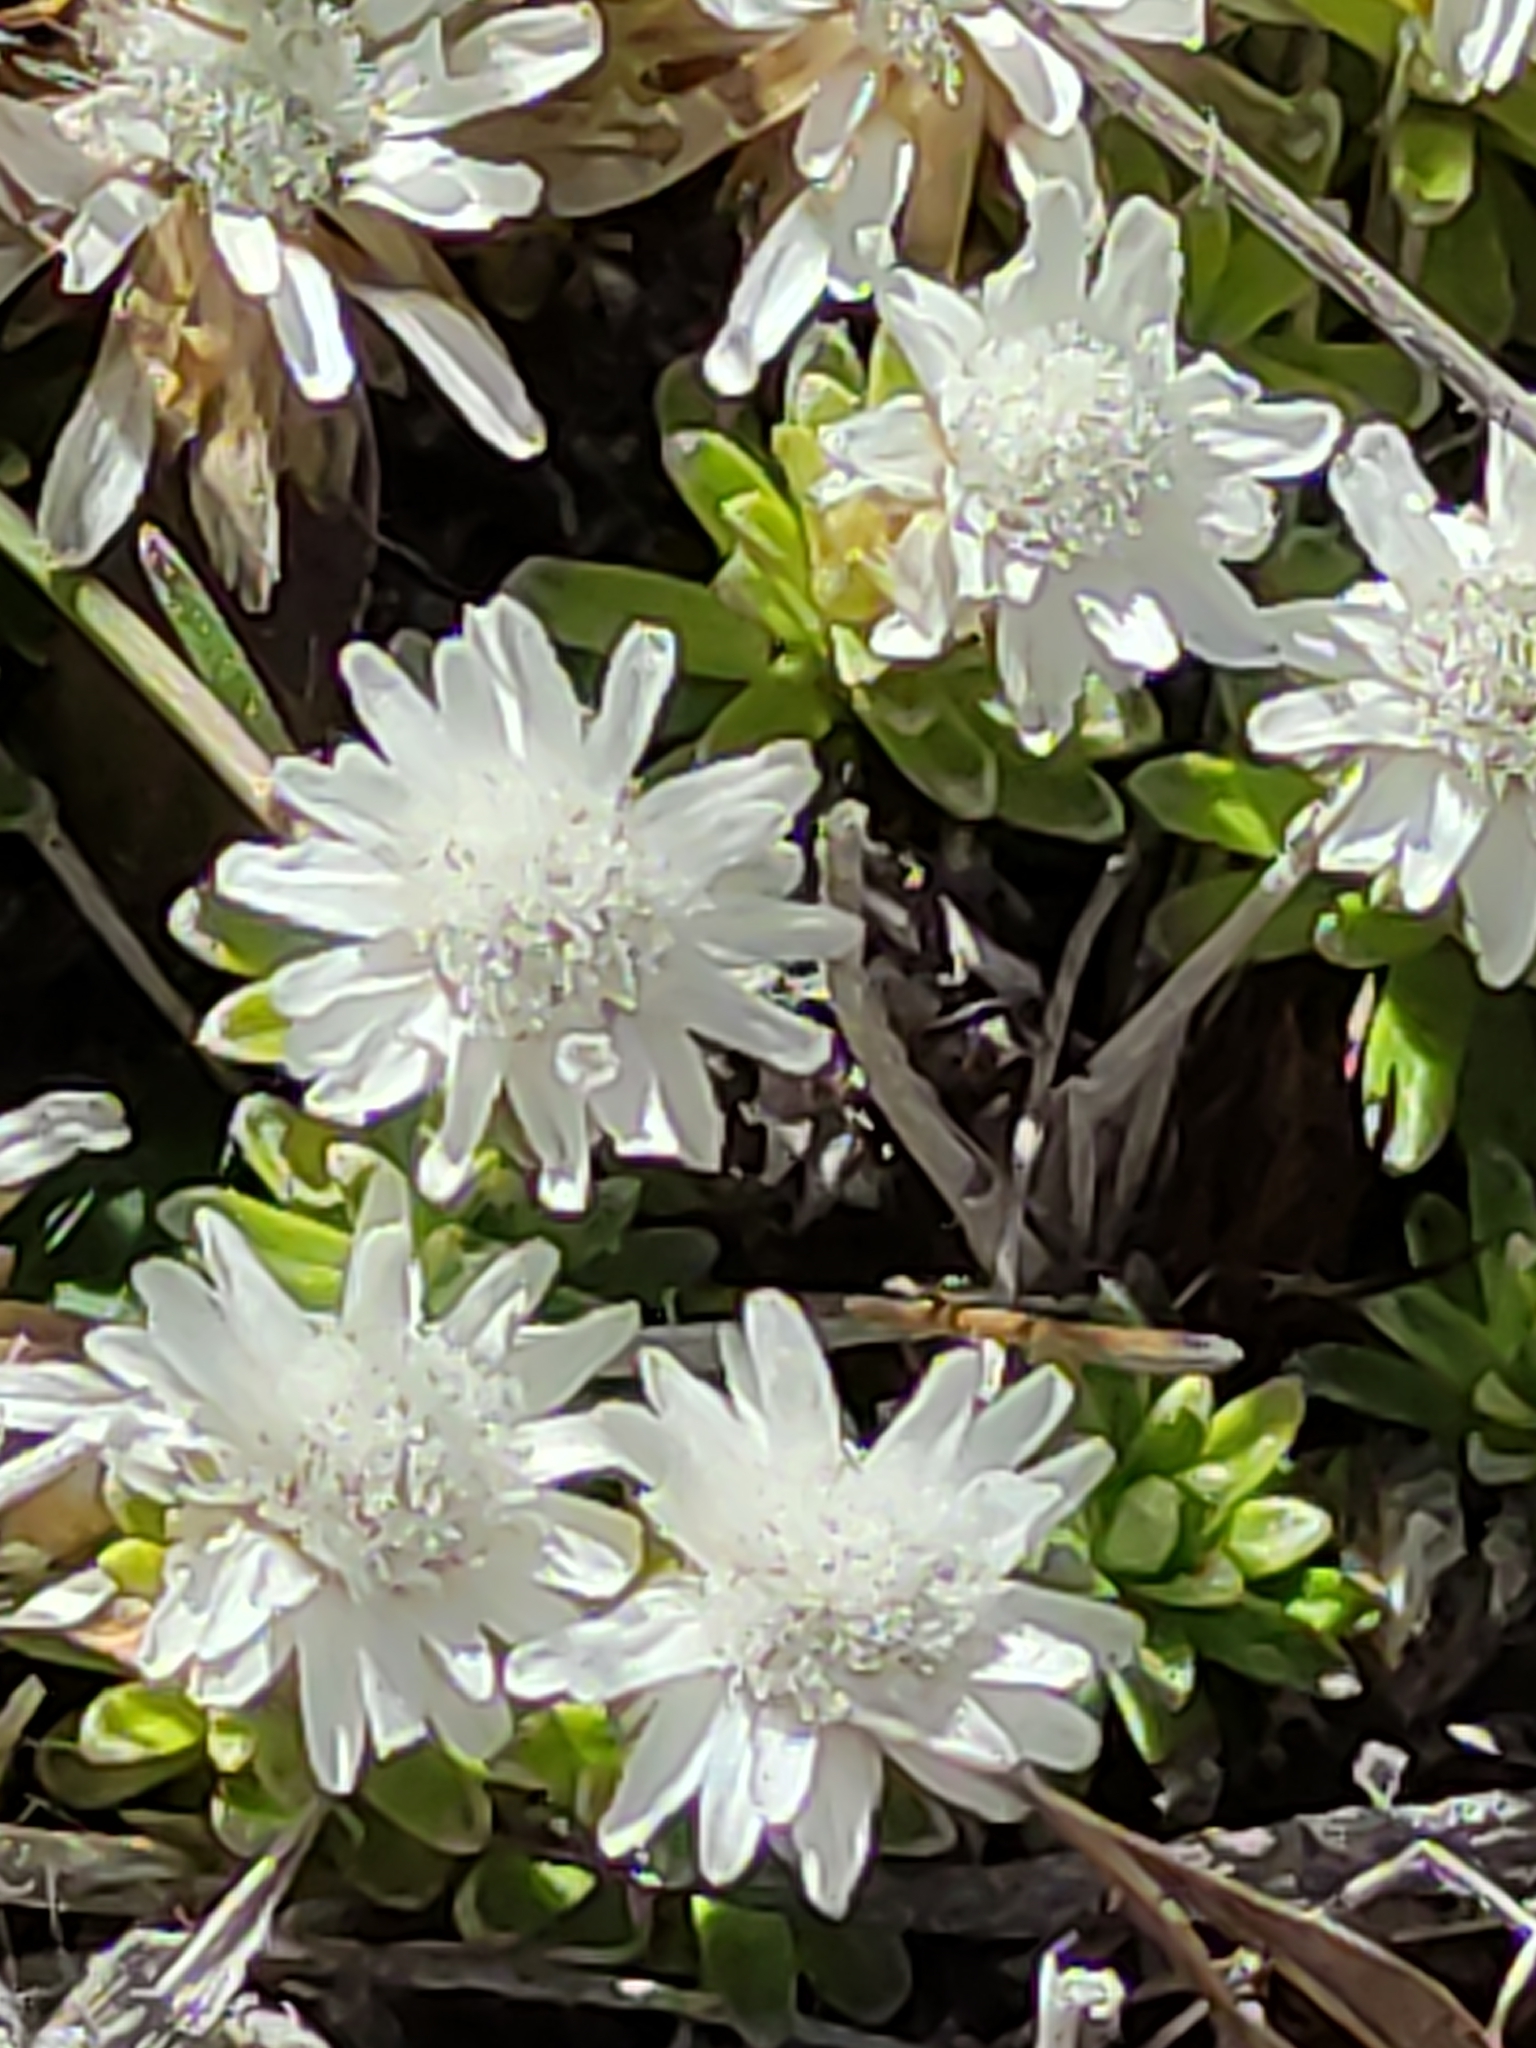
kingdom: Plantae
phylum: Tracheophyta
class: Magnoliopsida
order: Asterales
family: Asteraceae
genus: Raoulia
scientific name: Raoulia subsericea
